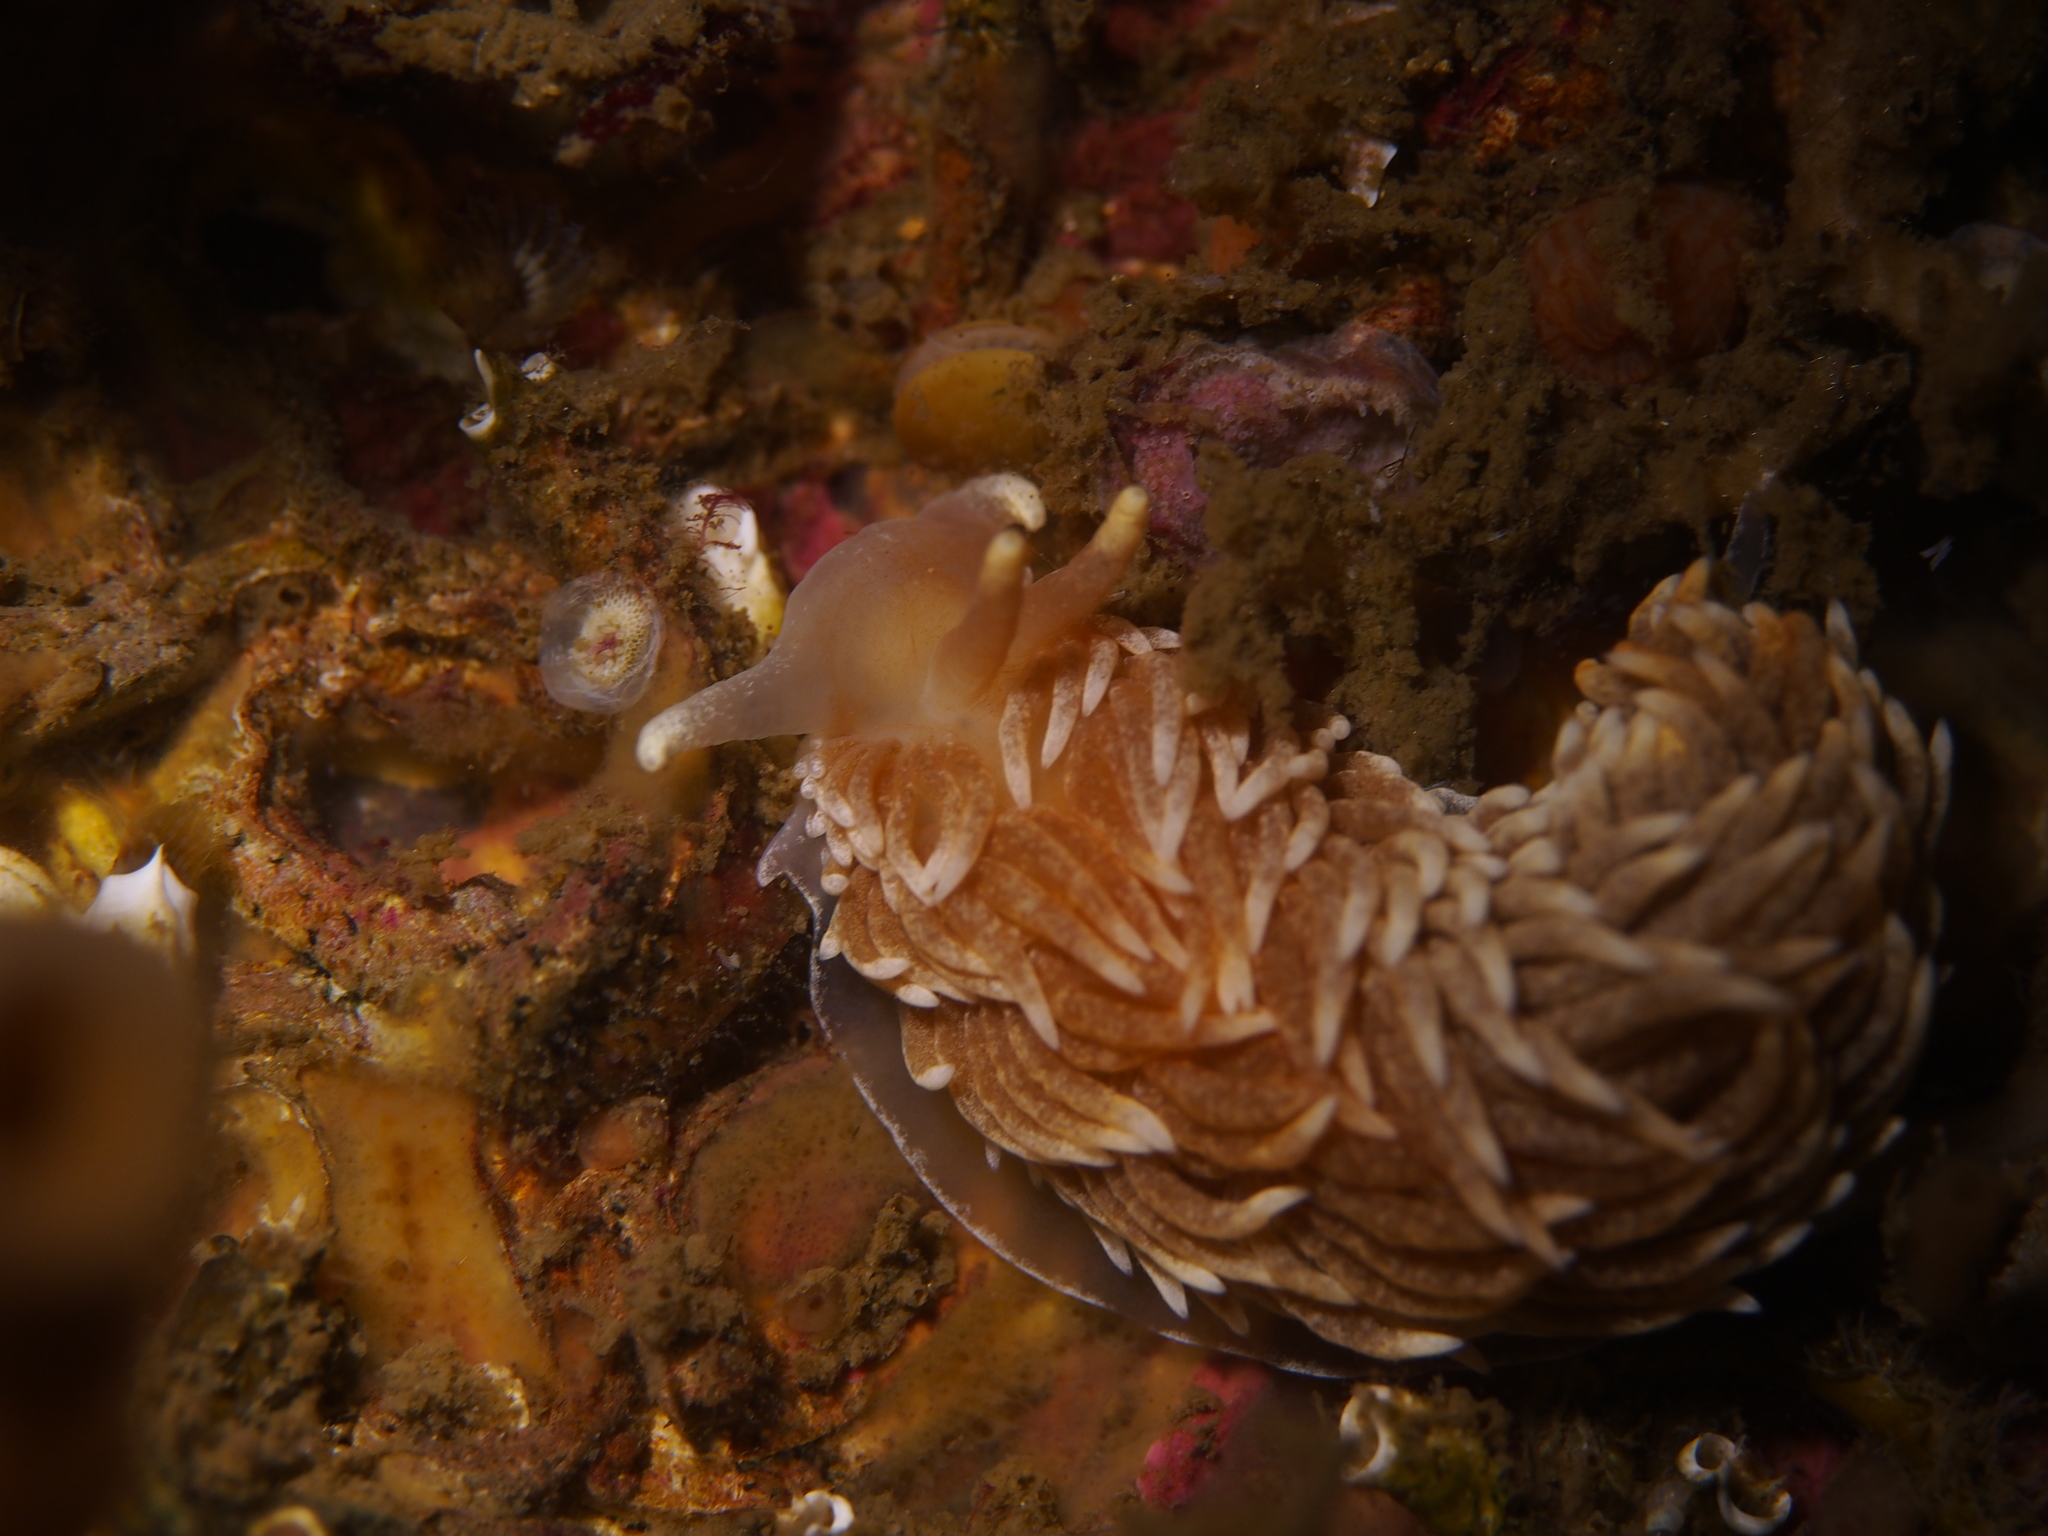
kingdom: Animalia
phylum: Mollusca
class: Gastropoda
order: Nudibranchia
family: Aeolidiidae
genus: Aeolidiella
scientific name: Aeolidiella glauca
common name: Orange-brown aeolid
